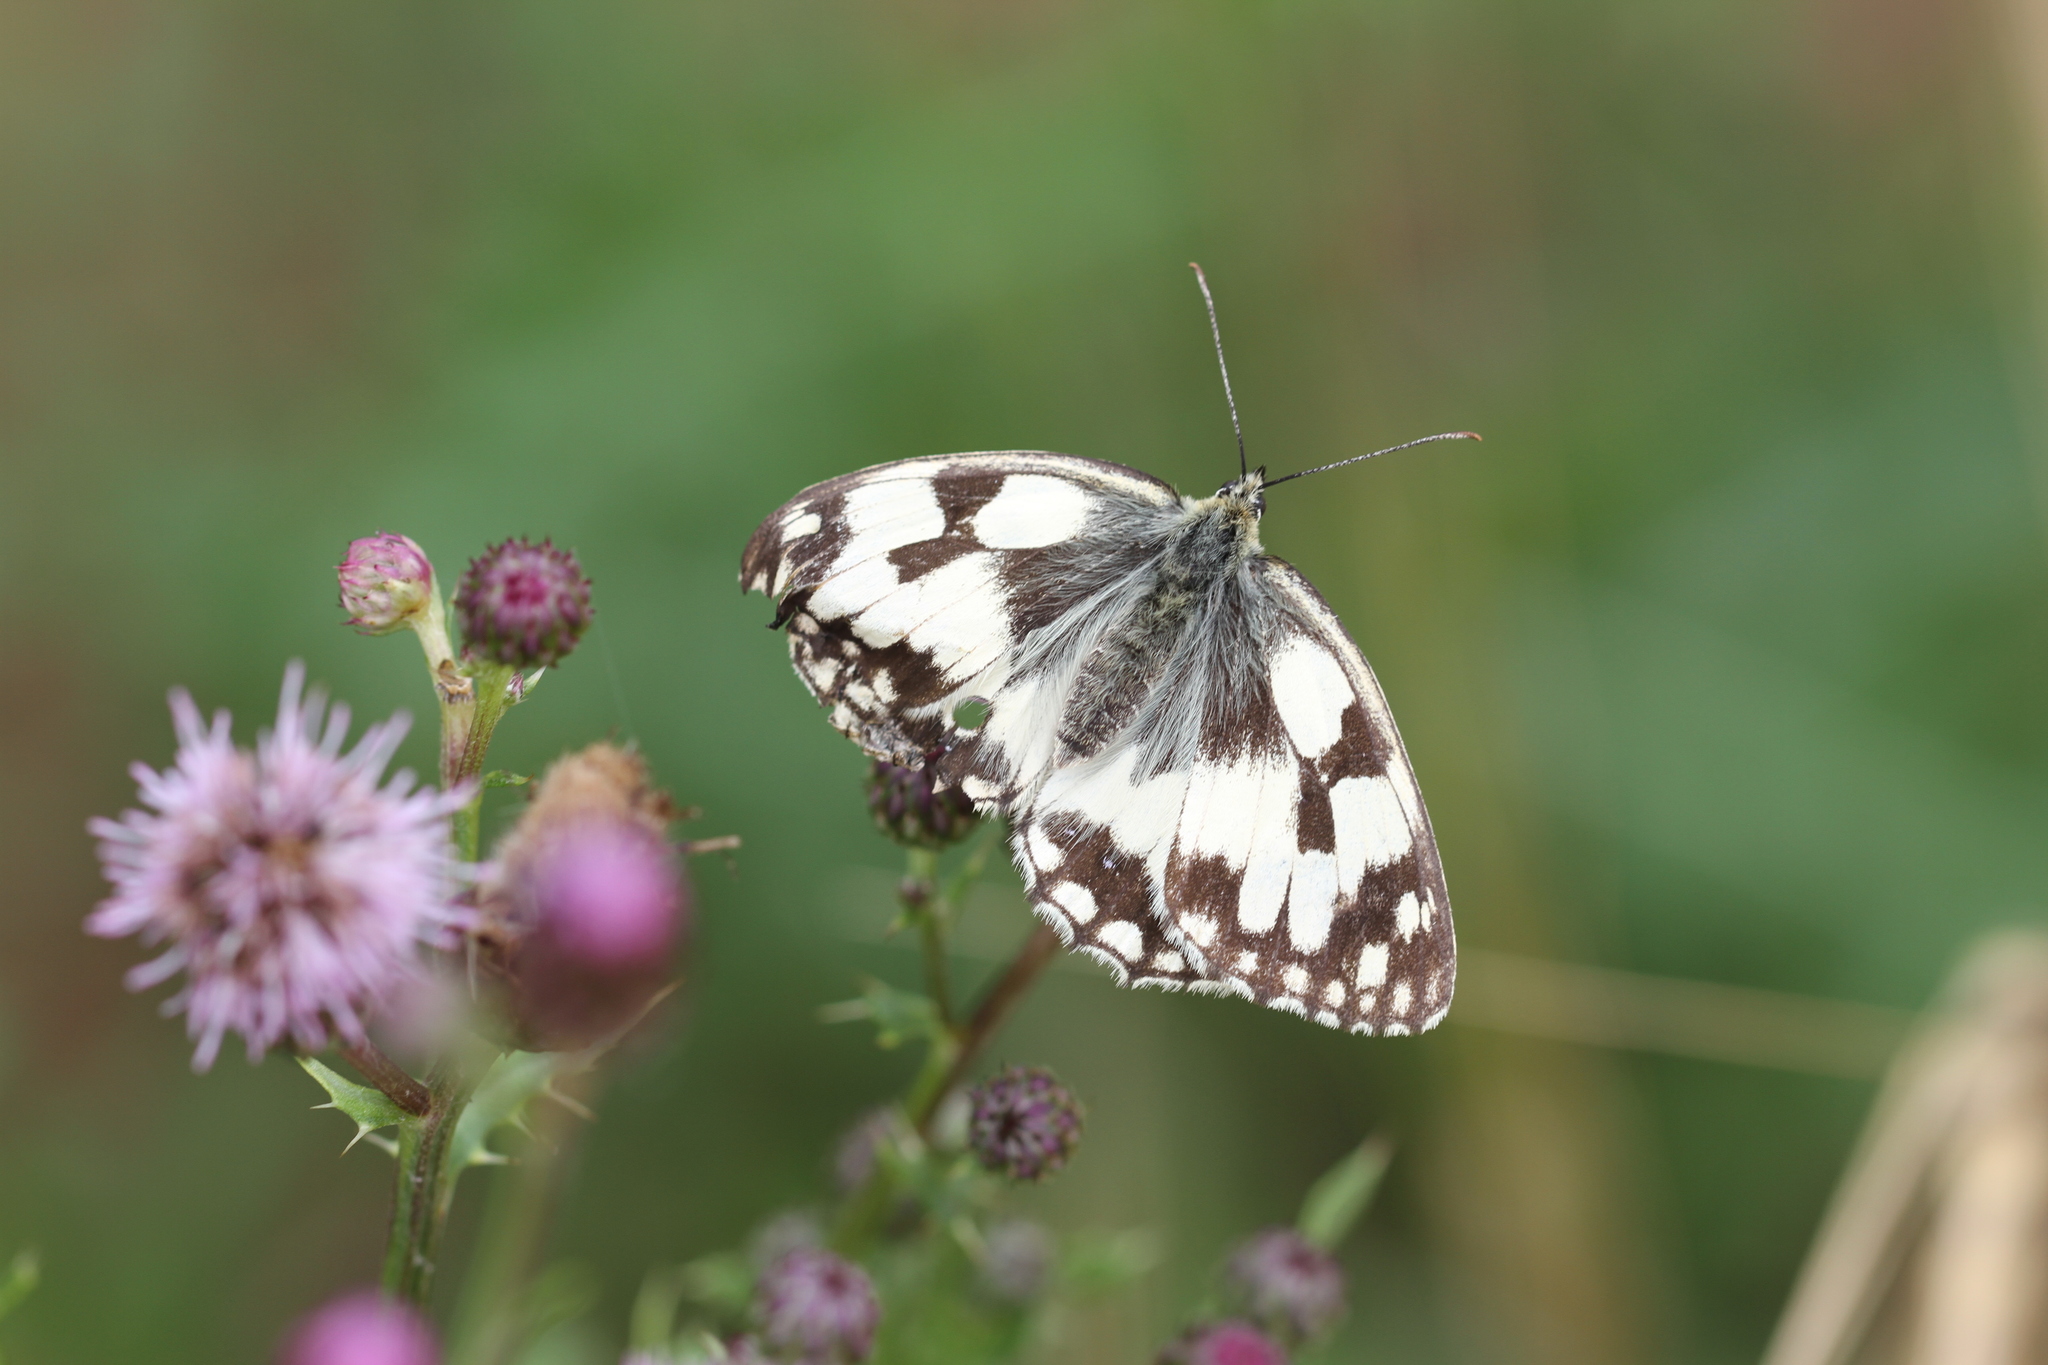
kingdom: Animalia
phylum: Arthropoda
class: Insecta
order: Lepidoptera
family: Nymphalidae
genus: Melanargia
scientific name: Melanargia galathea
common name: Marbled white
